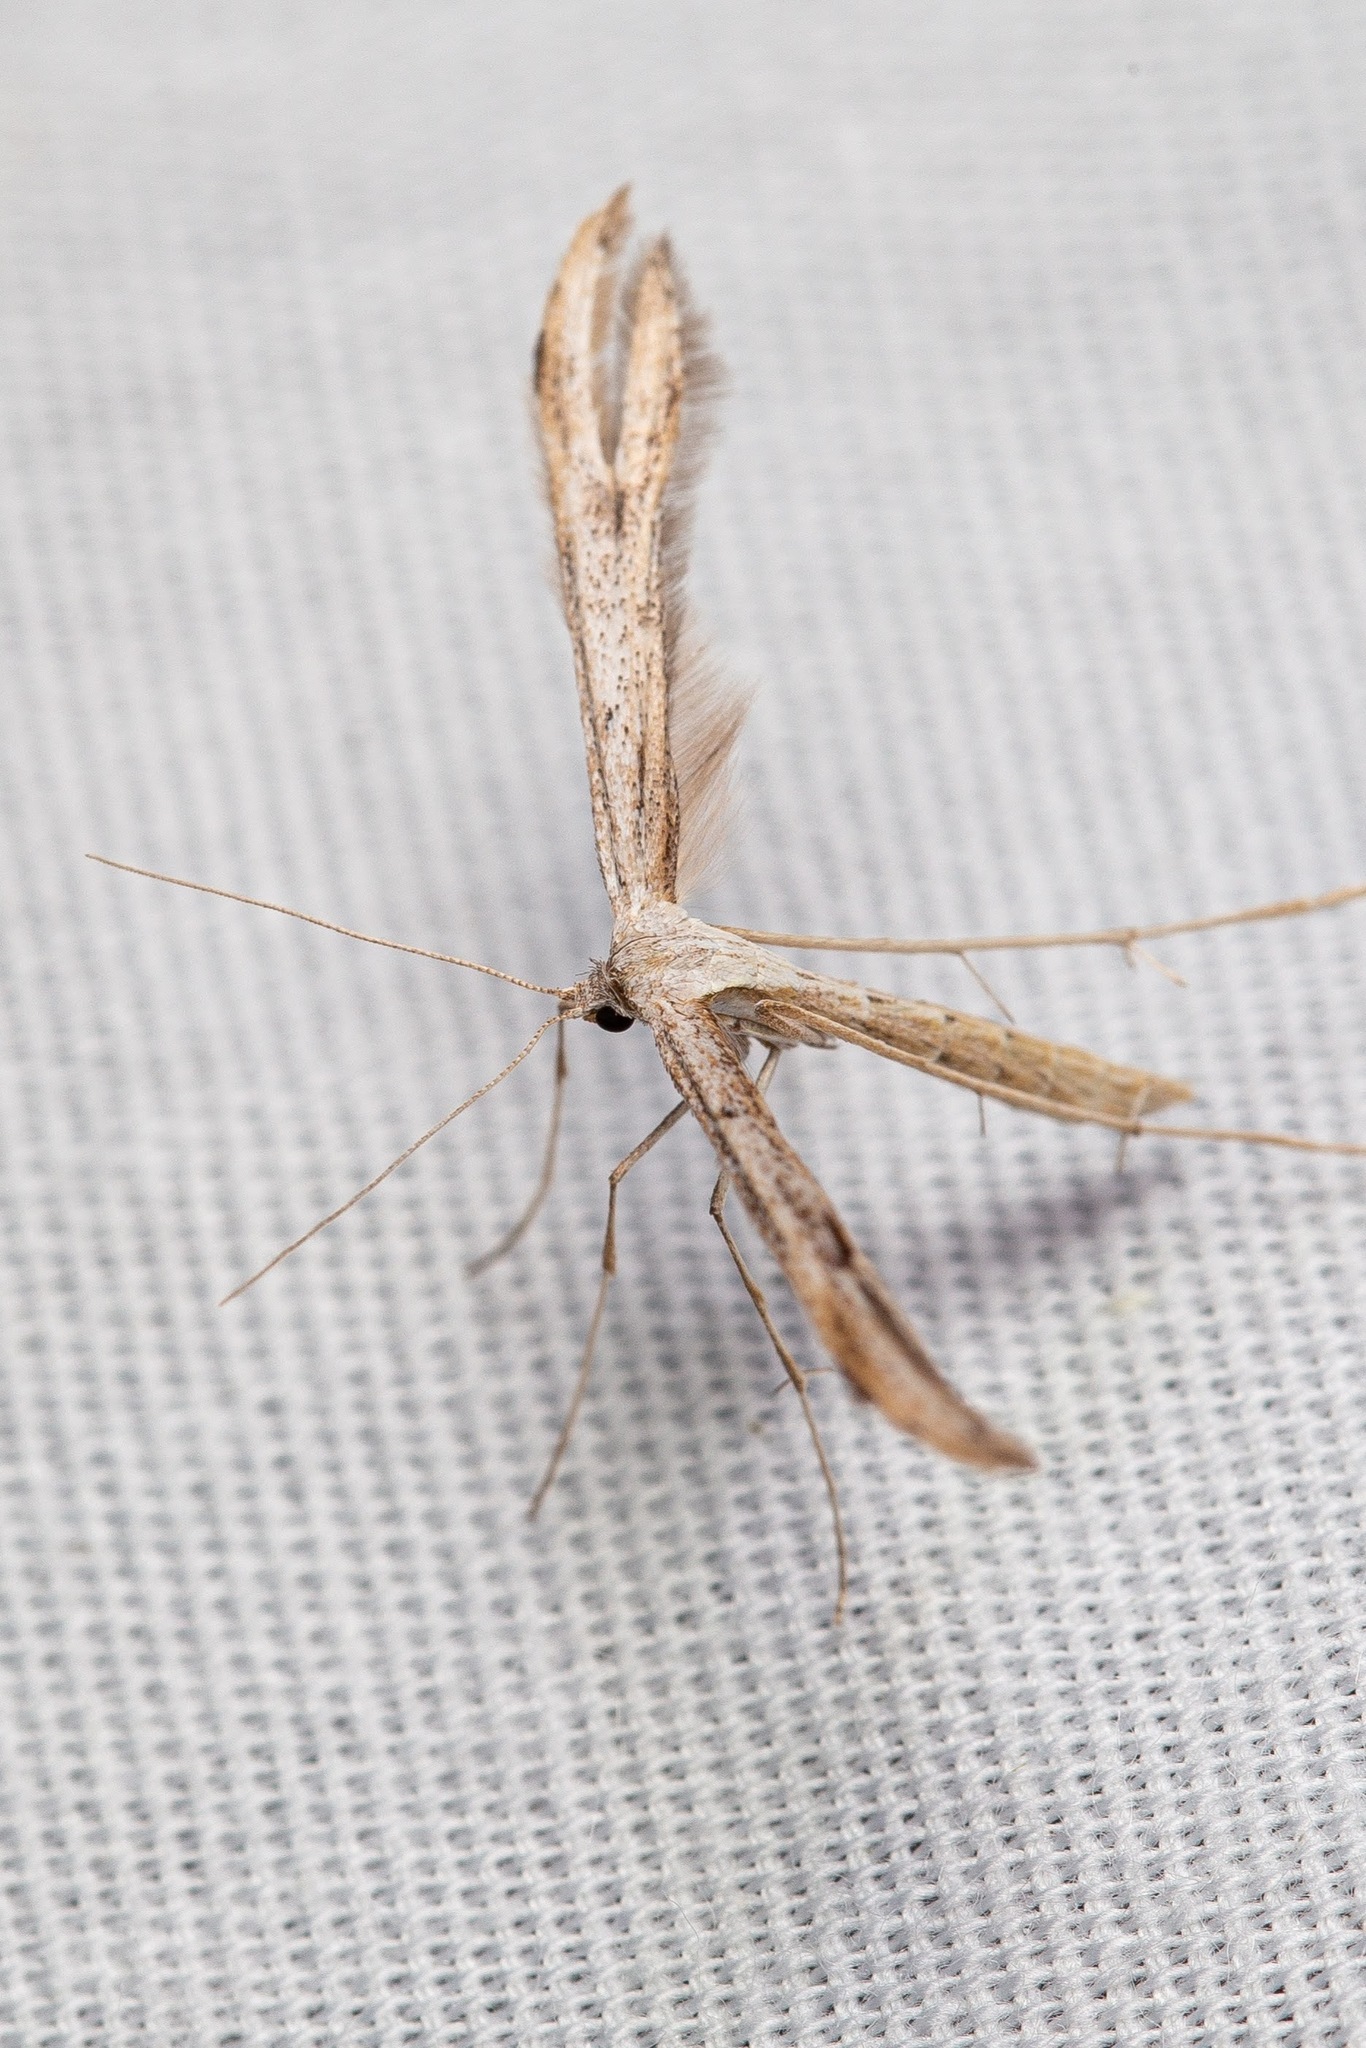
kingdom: Animalia
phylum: Arthropoda
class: Insecta
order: Lepidoptera
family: Pterophoridae
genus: Emmelina
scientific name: Emmelina monodactyla
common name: Common plume
